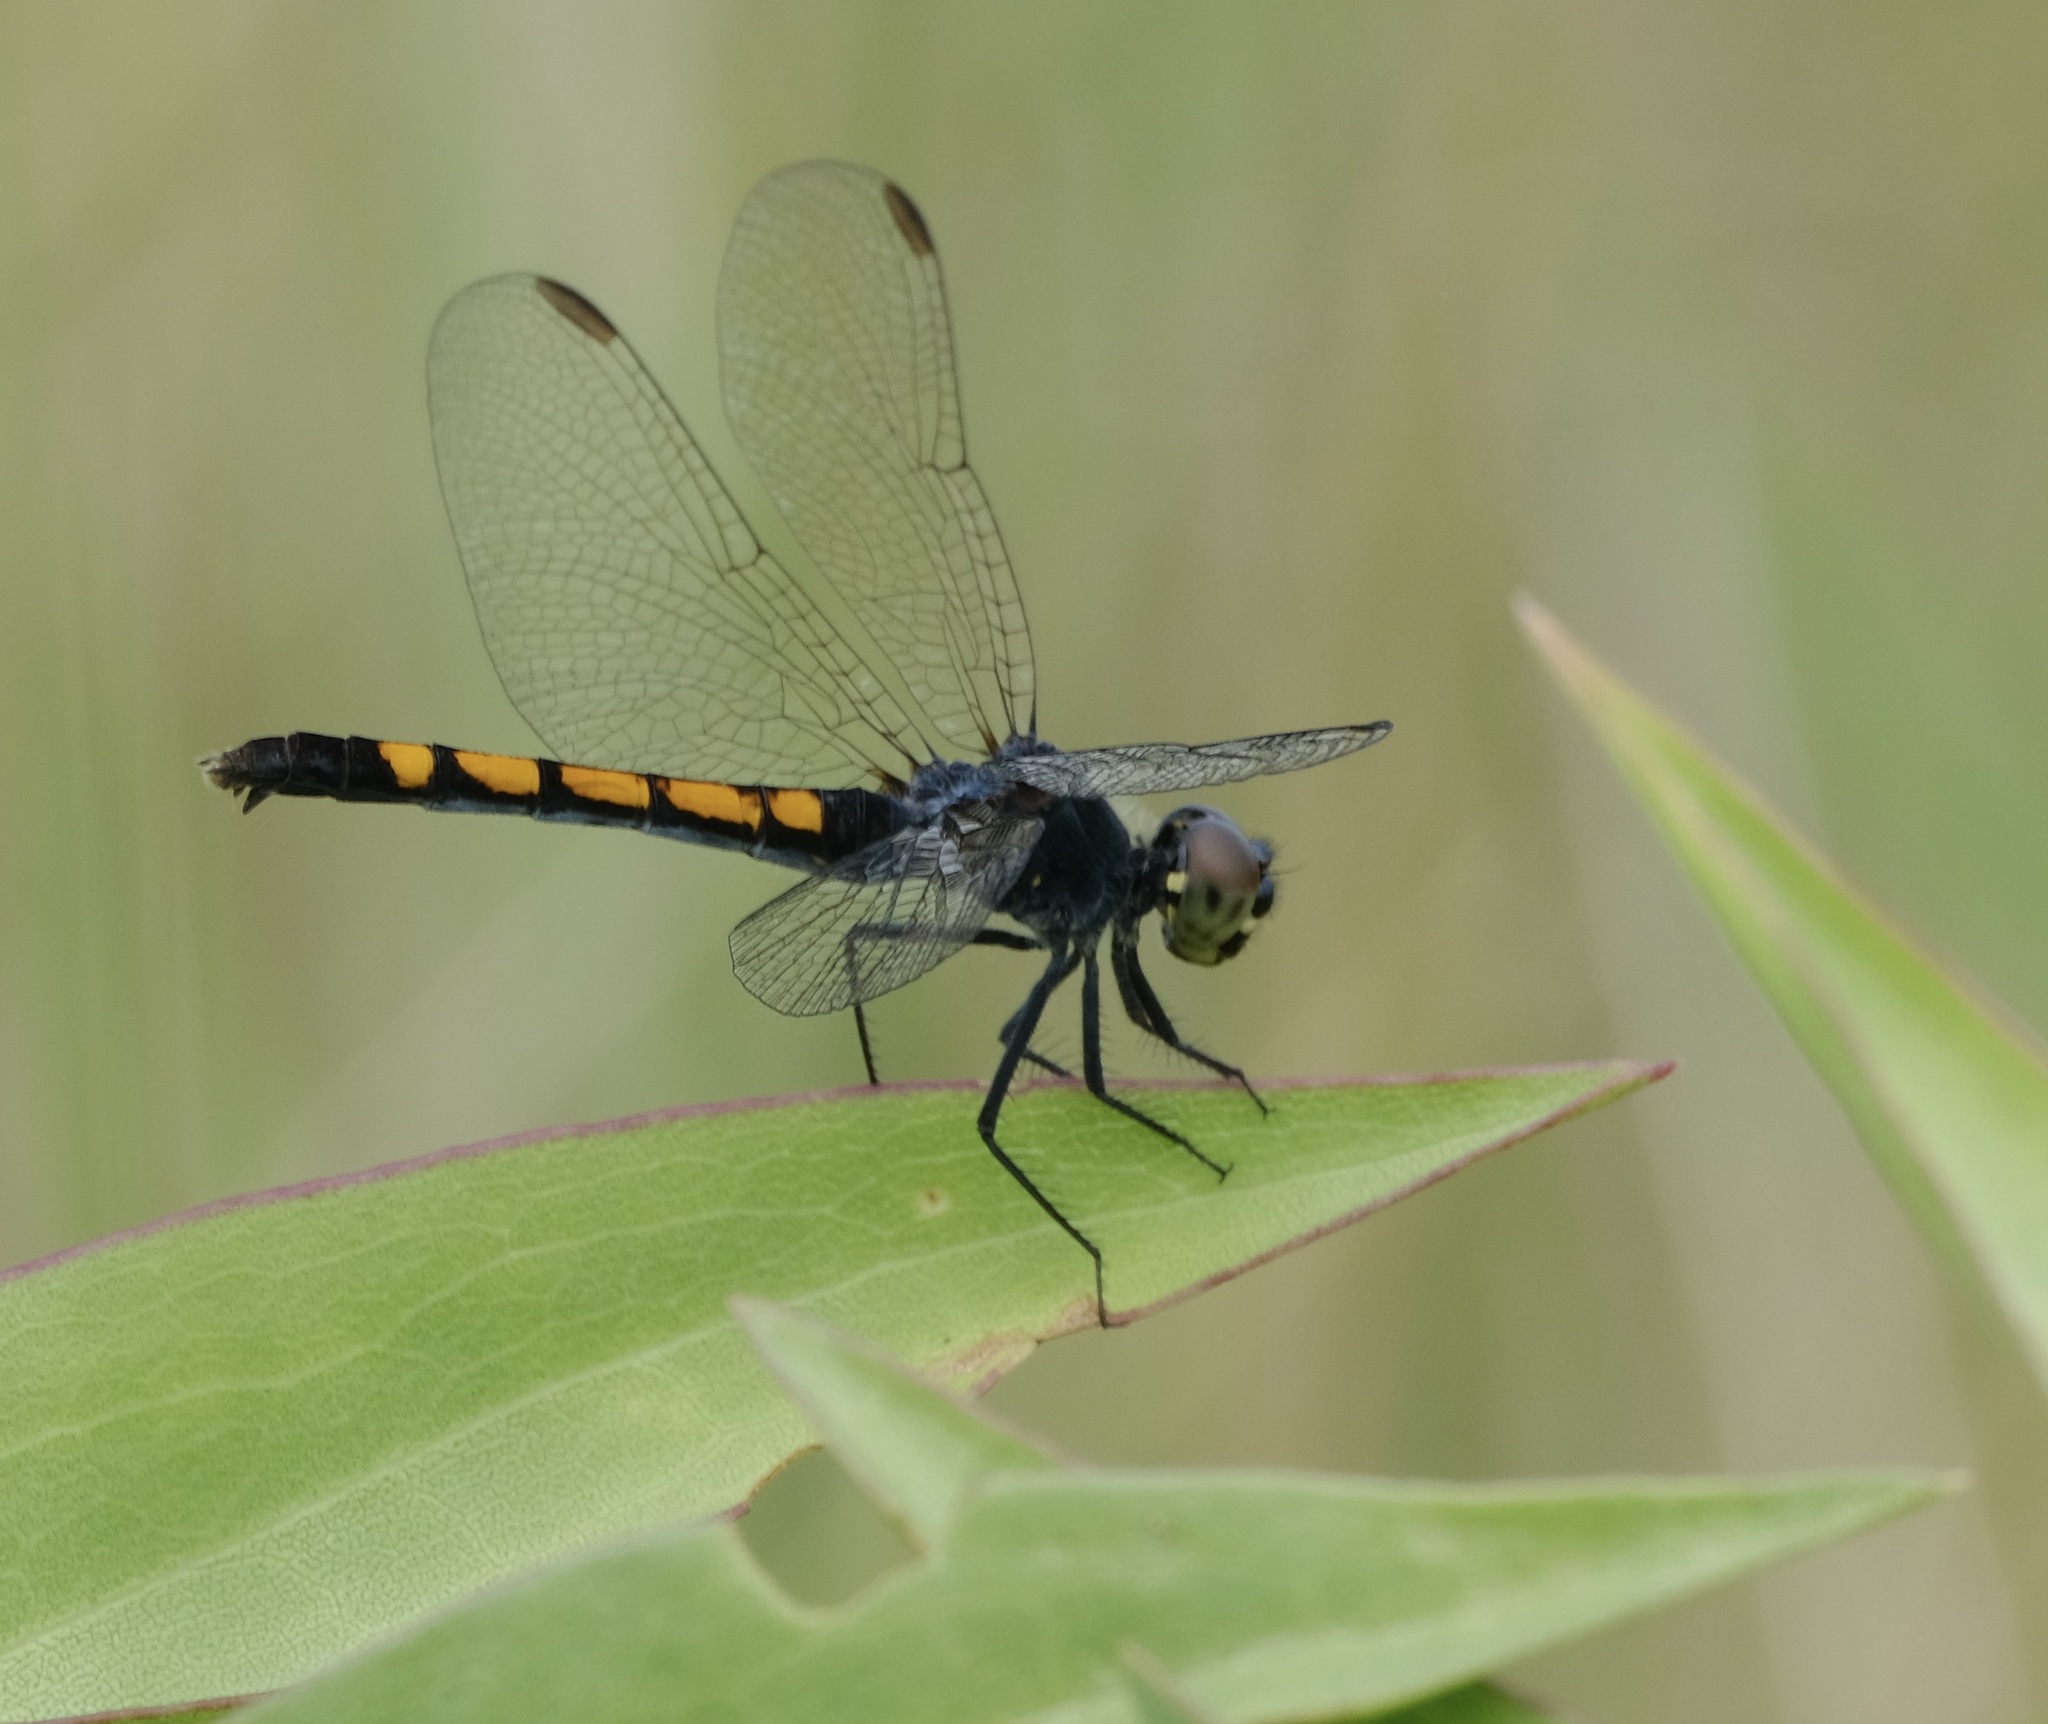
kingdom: Animalia
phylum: Arthropoda
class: Insecta
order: Odonata
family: Libellulidae
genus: Erythrodiplax
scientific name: Erythrodiplax berenice
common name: Seaside dragonlet
